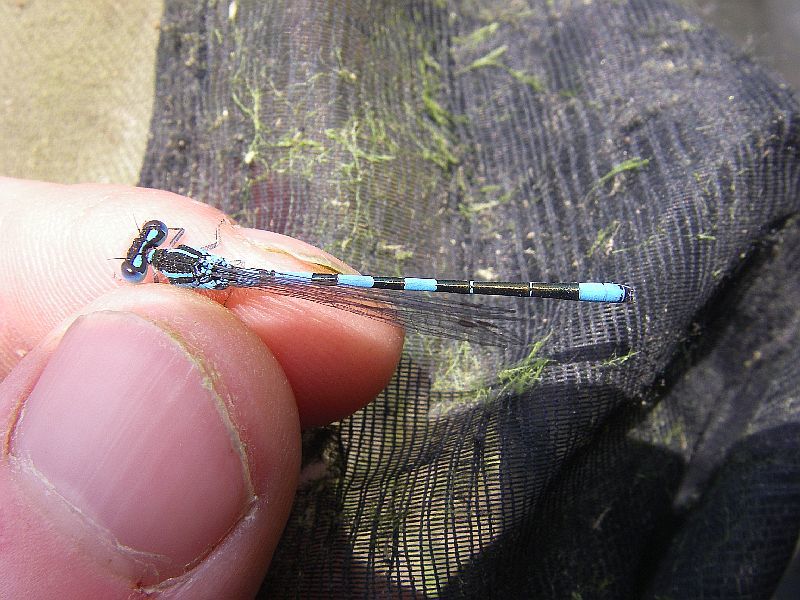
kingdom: Animalia
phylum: Arthropoda
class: Insecta
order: Odonata
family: Coenagrionidae
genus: Coenagrion
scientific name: Coenagrion scitulum
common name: Dainty bluet
